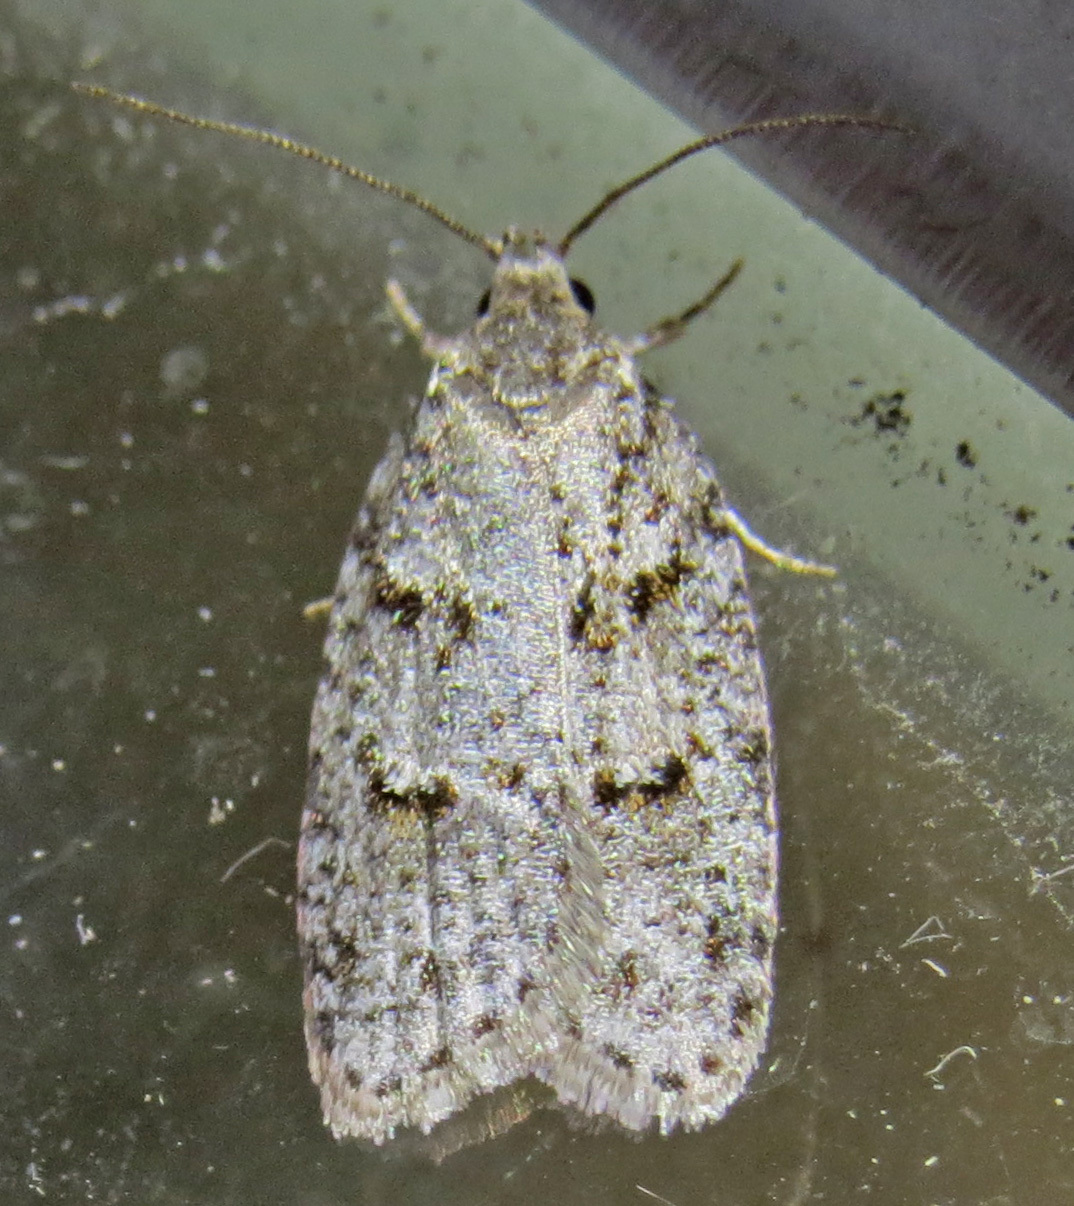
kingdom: Animalia
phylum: Arthropoda
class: Insecta
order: Lepidoptera
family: Depressariidae
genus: Bibarrambla
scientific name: Bibarrambla allenella
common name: Bog bibarrambla moth
